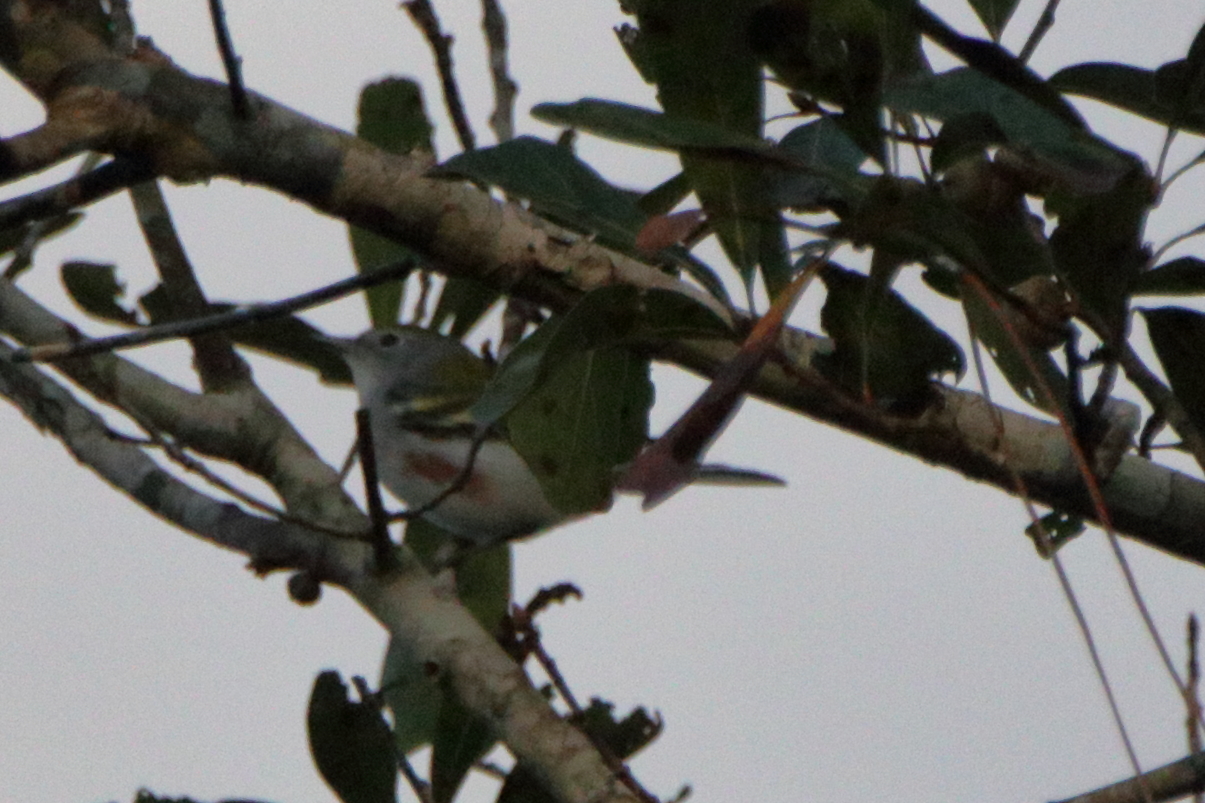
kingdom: Animalia
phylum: Chordata
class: Aves
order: Passeriformes
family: Parulidae
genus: Setophaga
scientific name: Setophaga pensylvanica
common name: Chestnut-sided warbler
